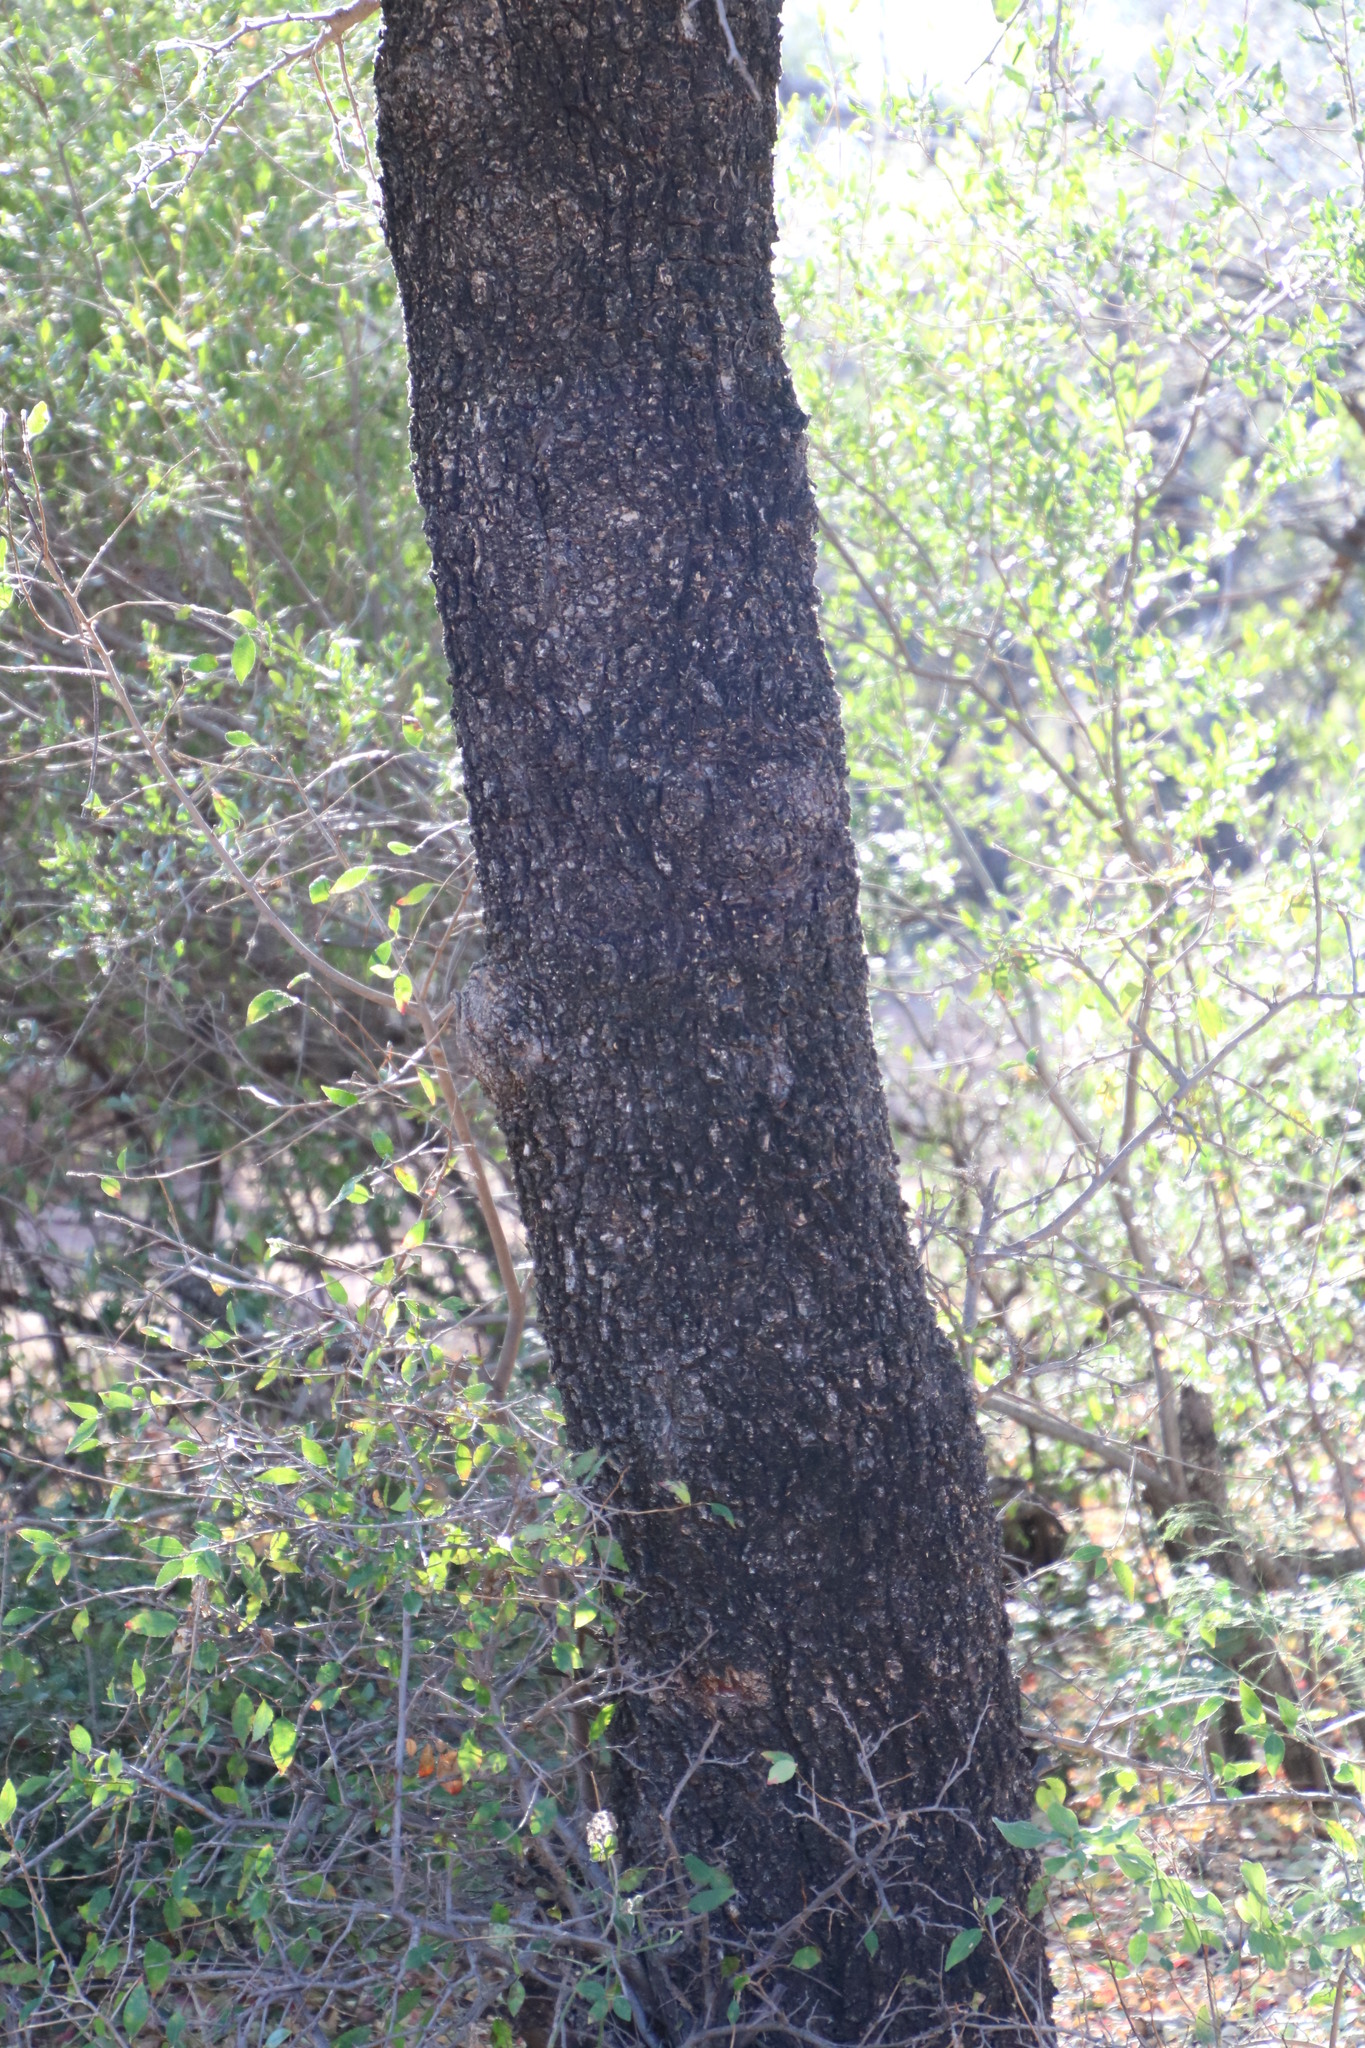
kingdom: Plantae
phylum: Tracheophyta
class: Magnoliopsida
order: Malpighiales
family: Euphorbiaceae
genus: Spirostachys
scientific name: Spirostachys africana
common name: Tamboti
